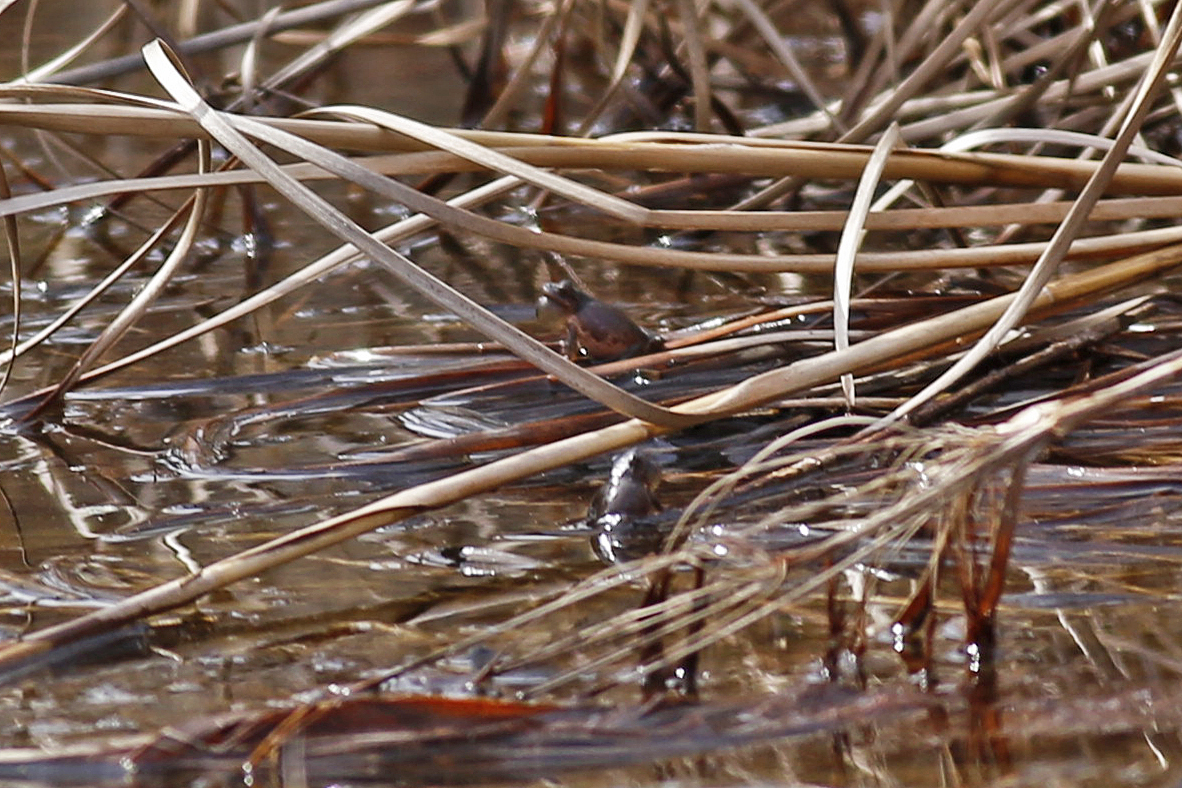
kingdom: Animalia
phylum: Chordata
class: Amphibia
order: Anura
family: Hylidae
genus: Pseudacris
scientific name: Pseudacris crucifer
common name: Spring peeper
